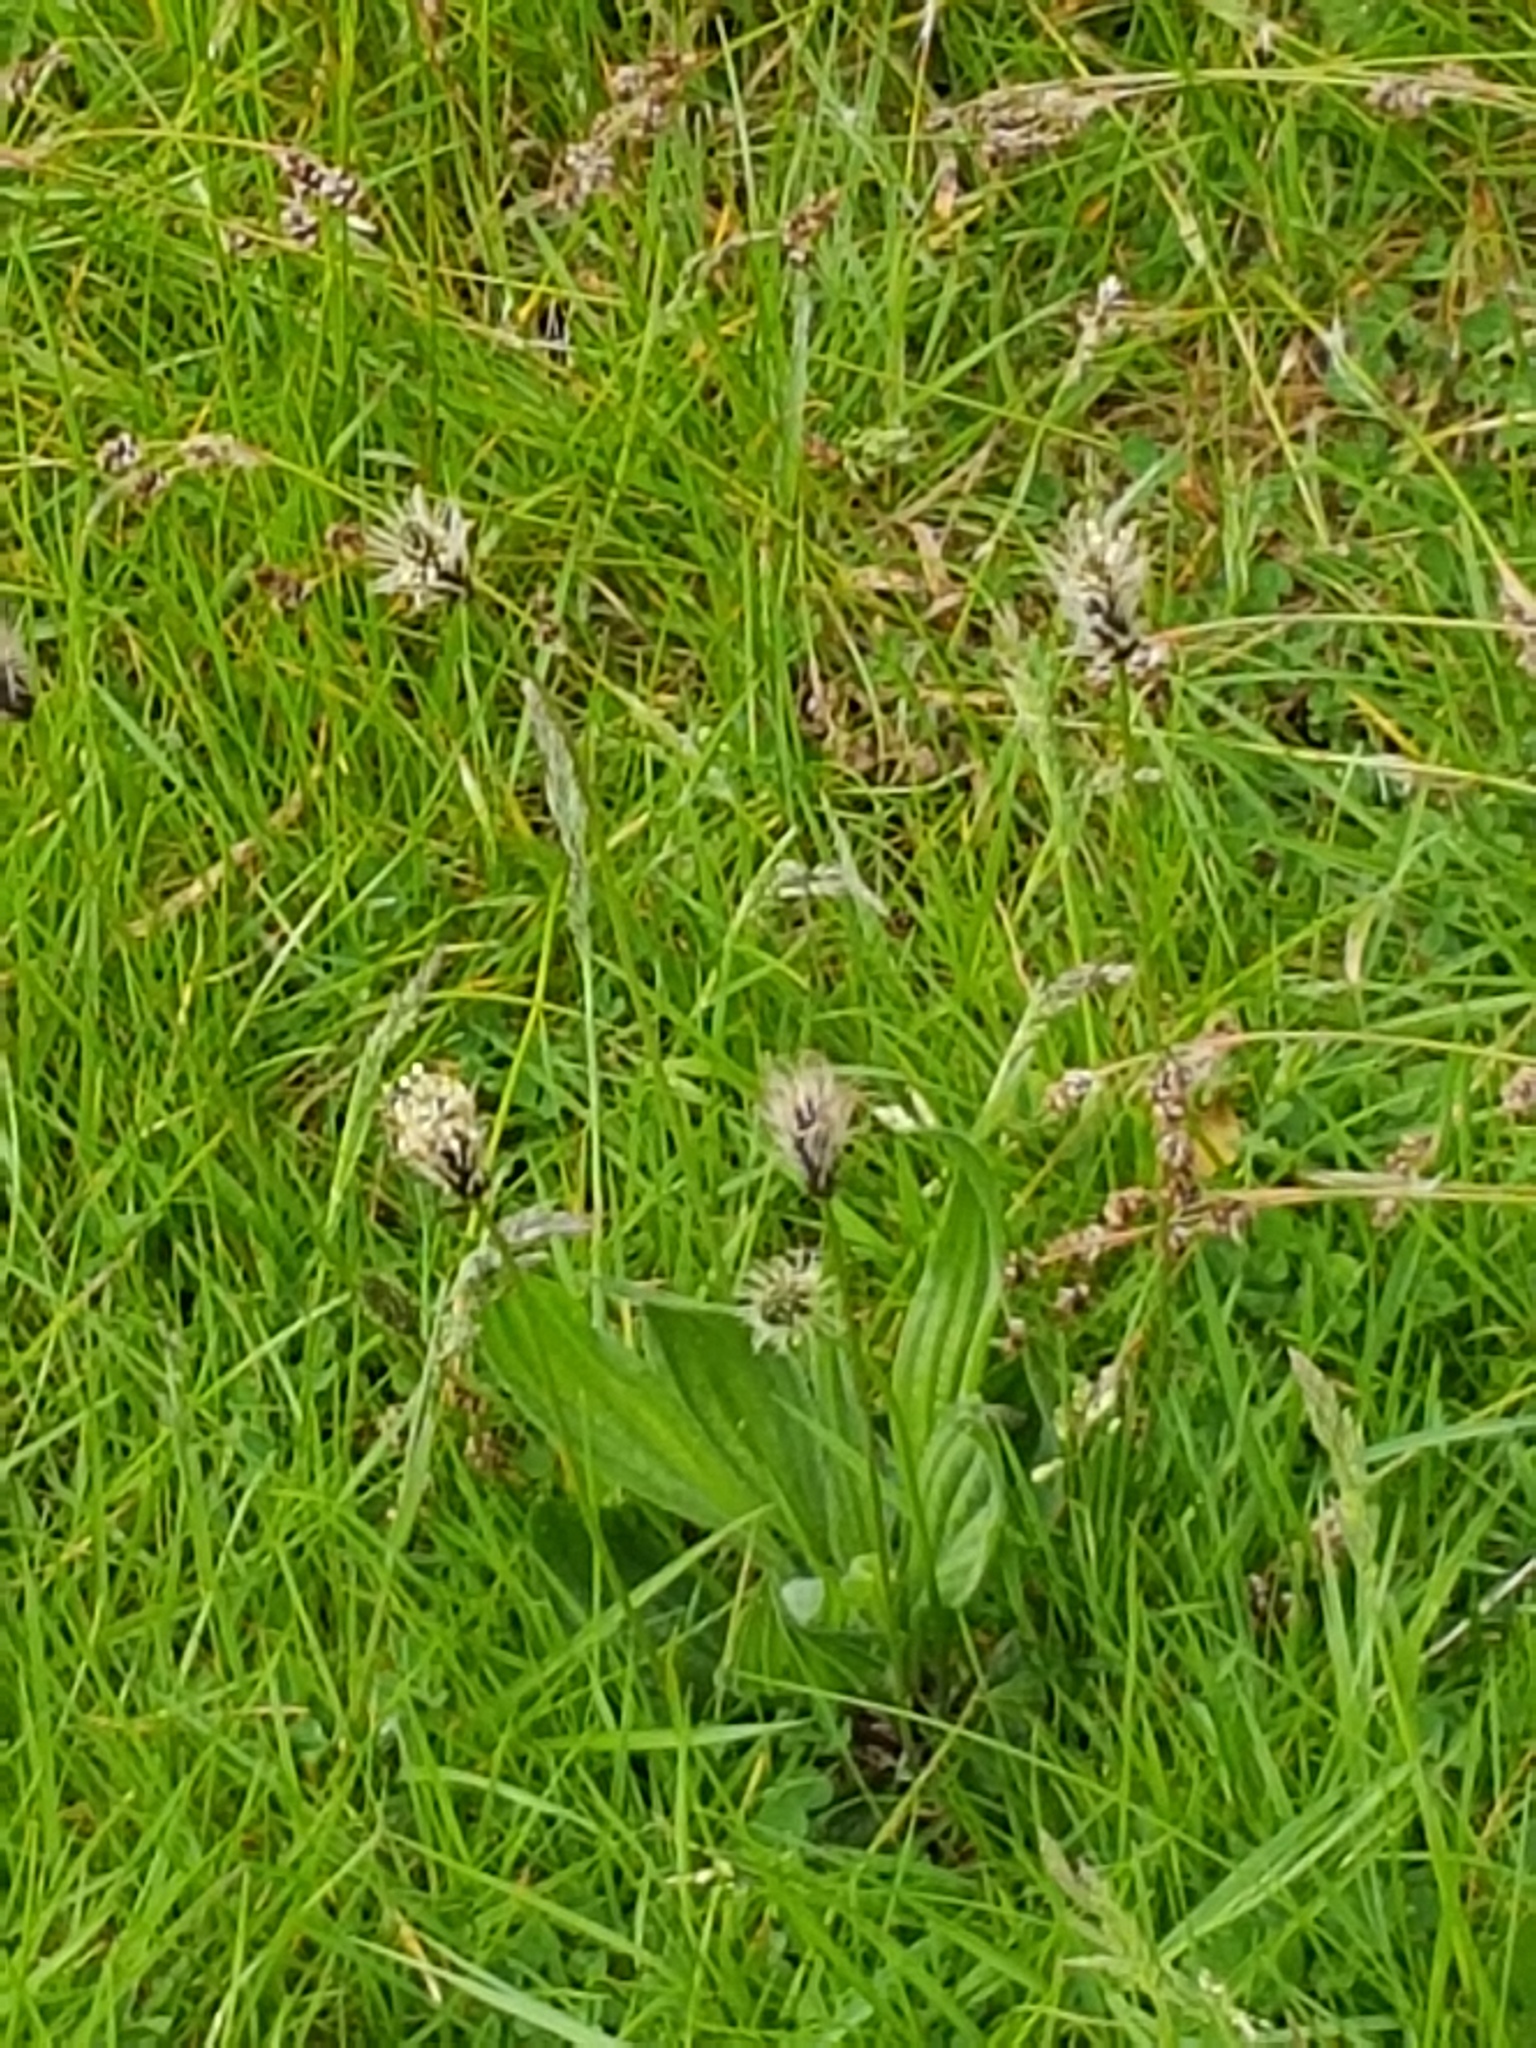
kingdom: Plantae
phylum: Tracheophyta
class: Magnoliopsida
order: Lamiales
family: Plantaginaceae
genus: Plantago
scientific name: Plantago lanceolata
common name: Ribwort plantain
